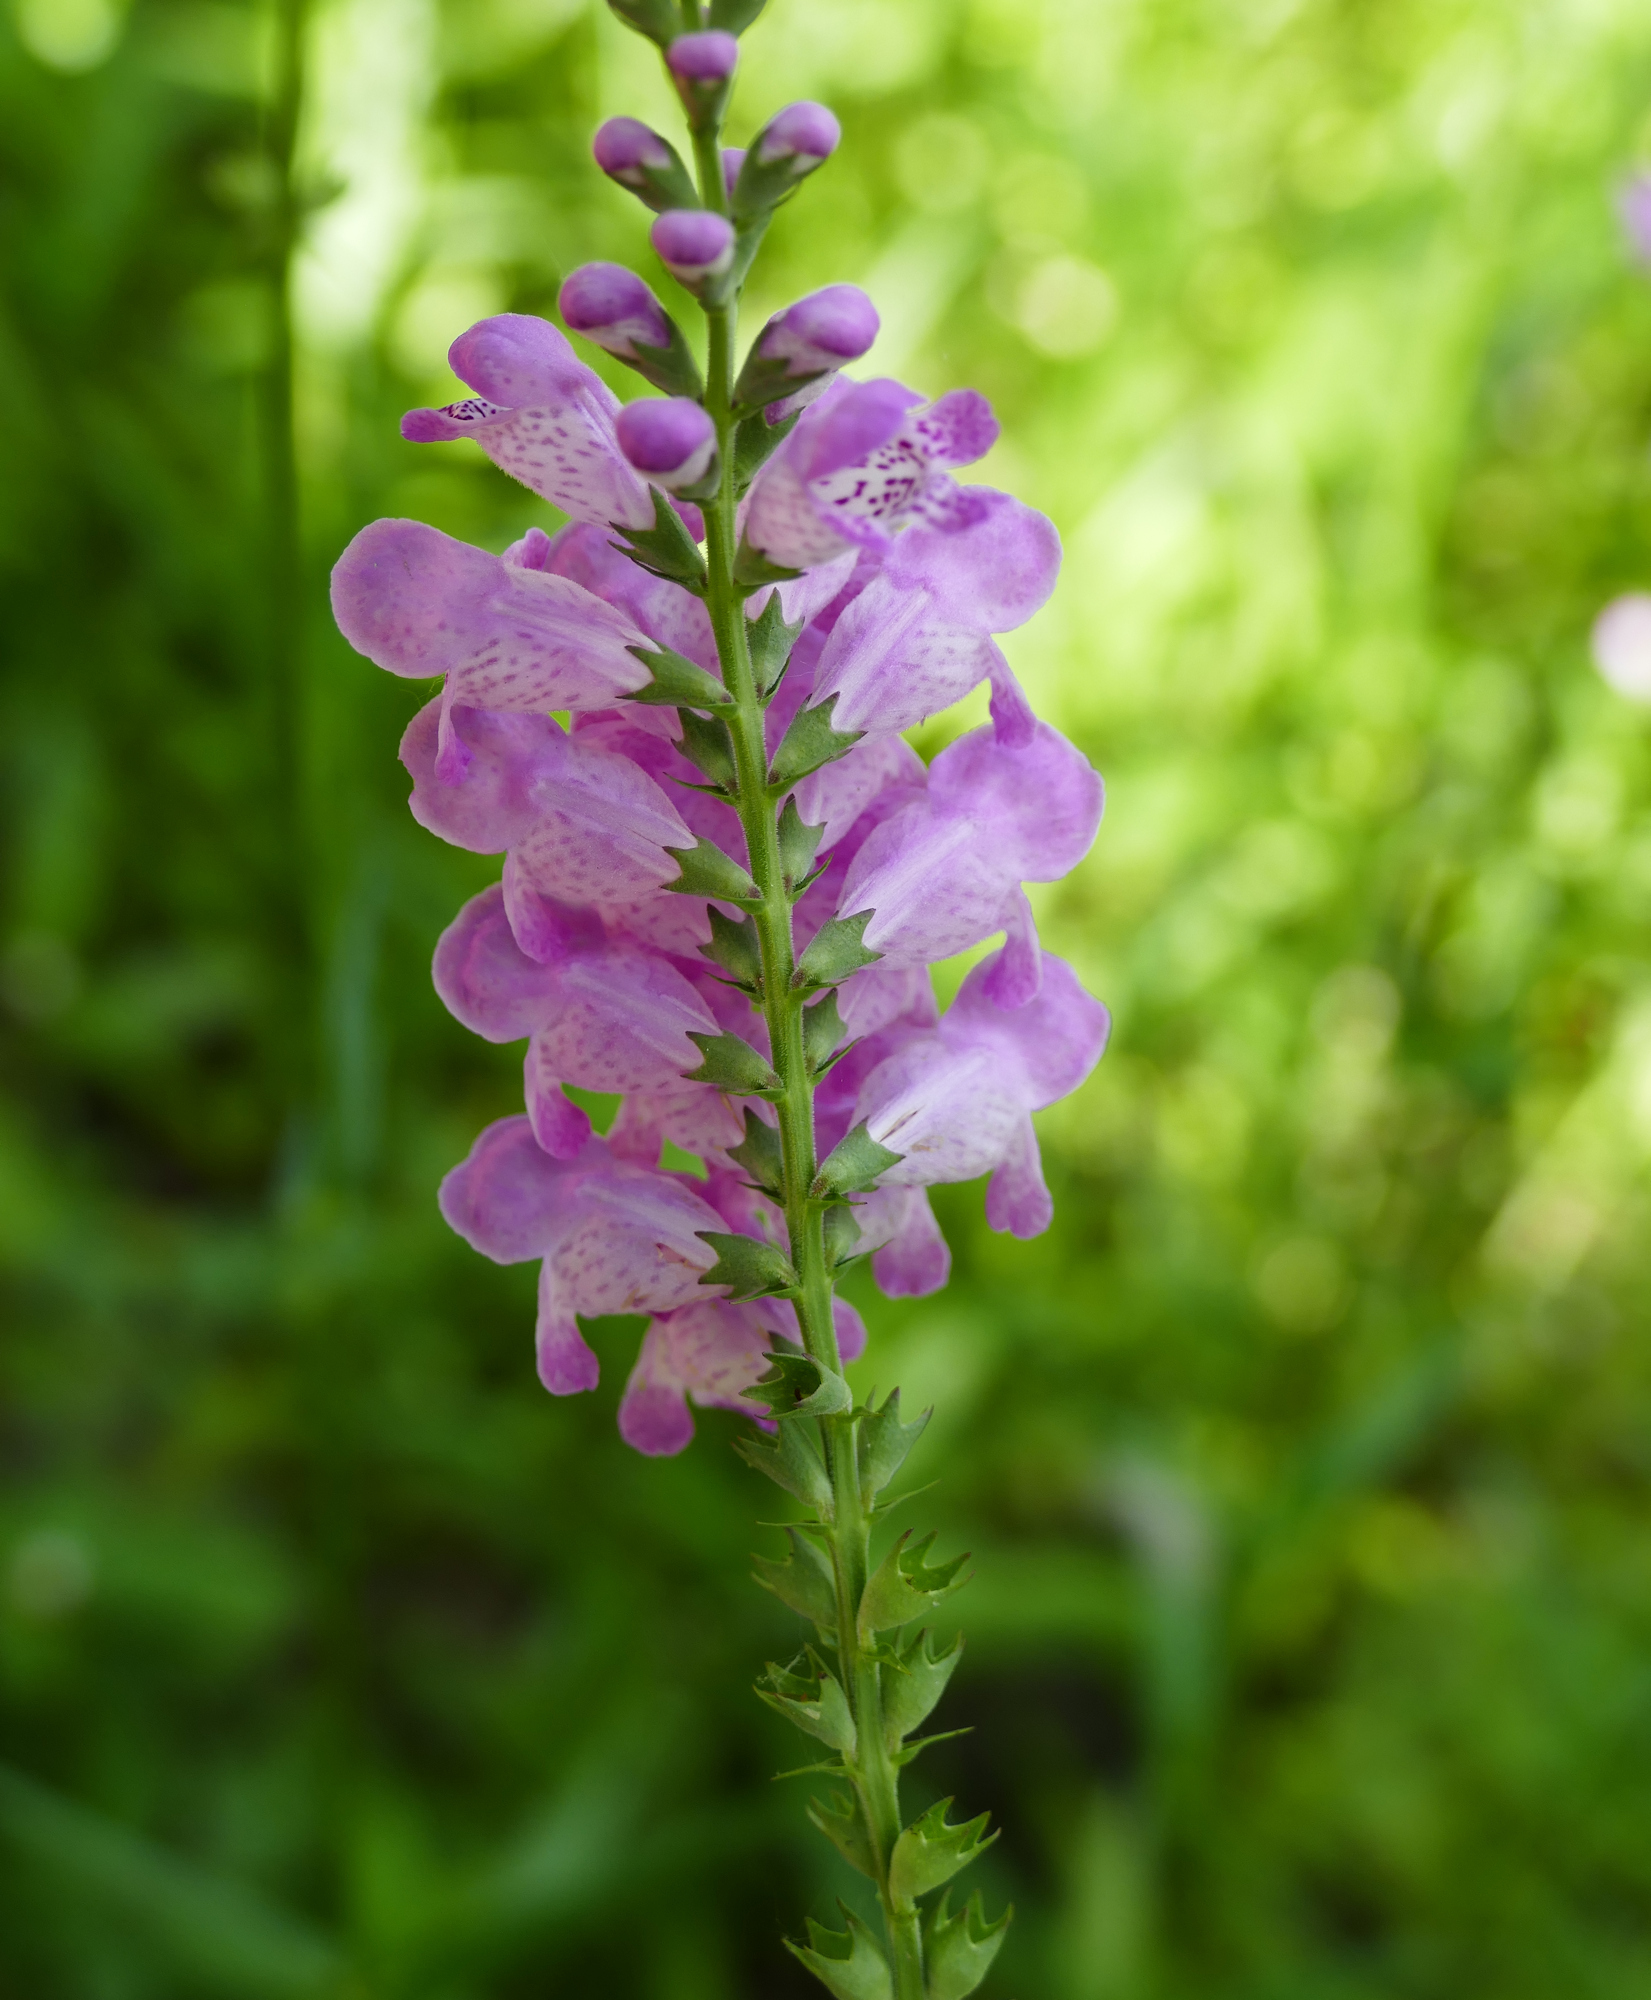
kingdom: Plantae
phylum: Tracheophyta
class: Magnoliopsida
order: Lamiales
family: Lamiaceae
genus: Physostegia
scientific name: Physostegia virginiana
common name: Obedient-plant
